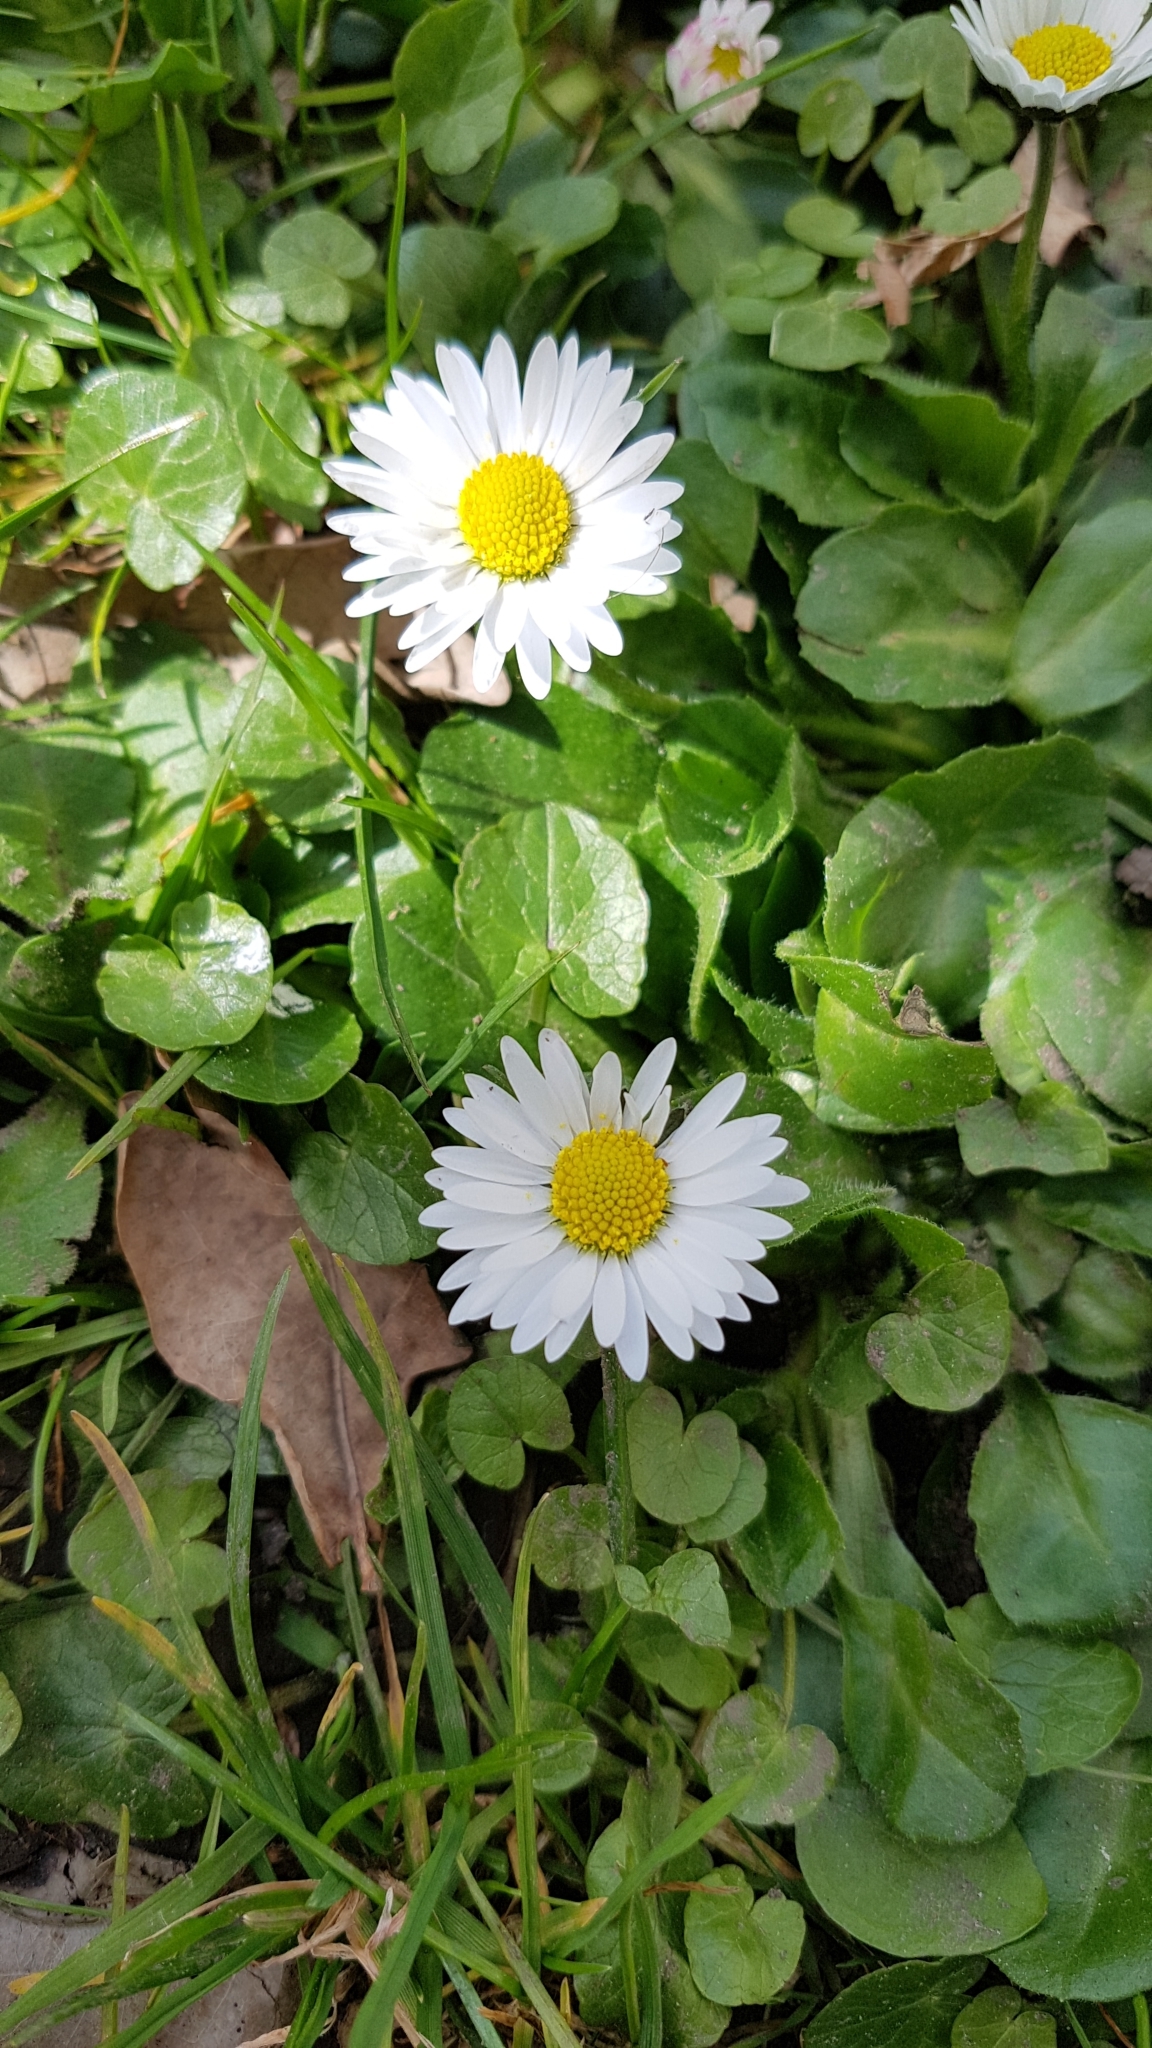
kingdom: Plantae
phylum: Tracheophyta
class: Magnoliopsida
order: Asterales
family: Asteraceae
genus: Bellis
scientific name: Bellis perennis
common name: Lawndaisy
